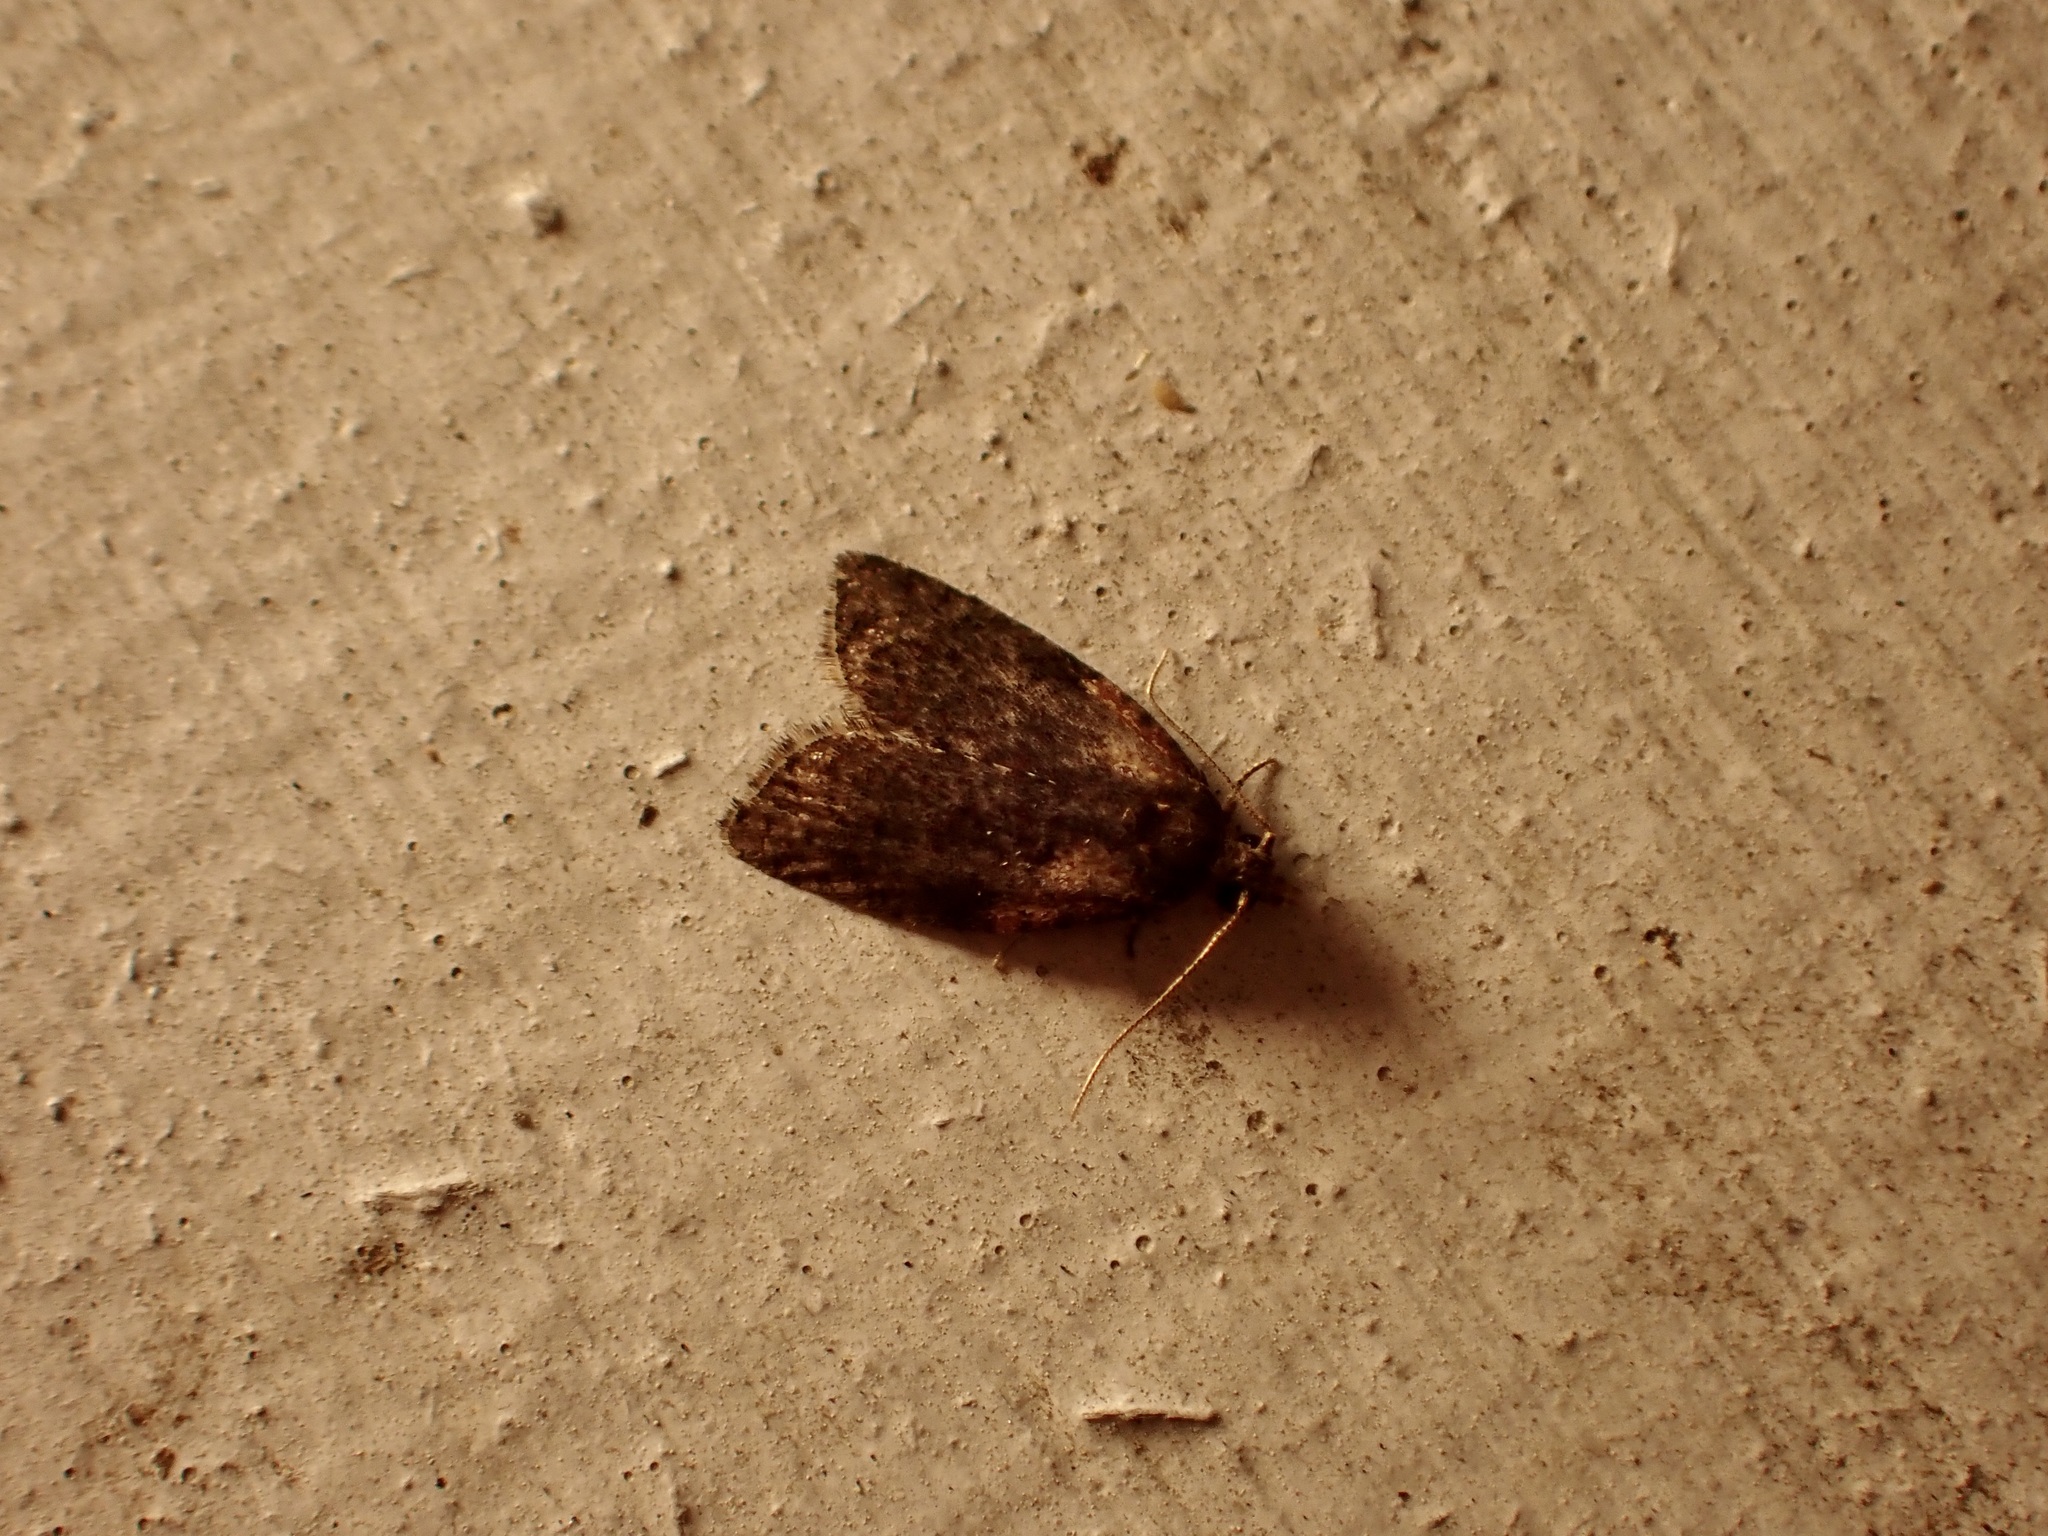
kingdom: Animalia
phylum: Arthropoda
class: Insecta
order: Lepidoptera
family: Tortricidae
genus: Capua
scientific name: Capua intractana
